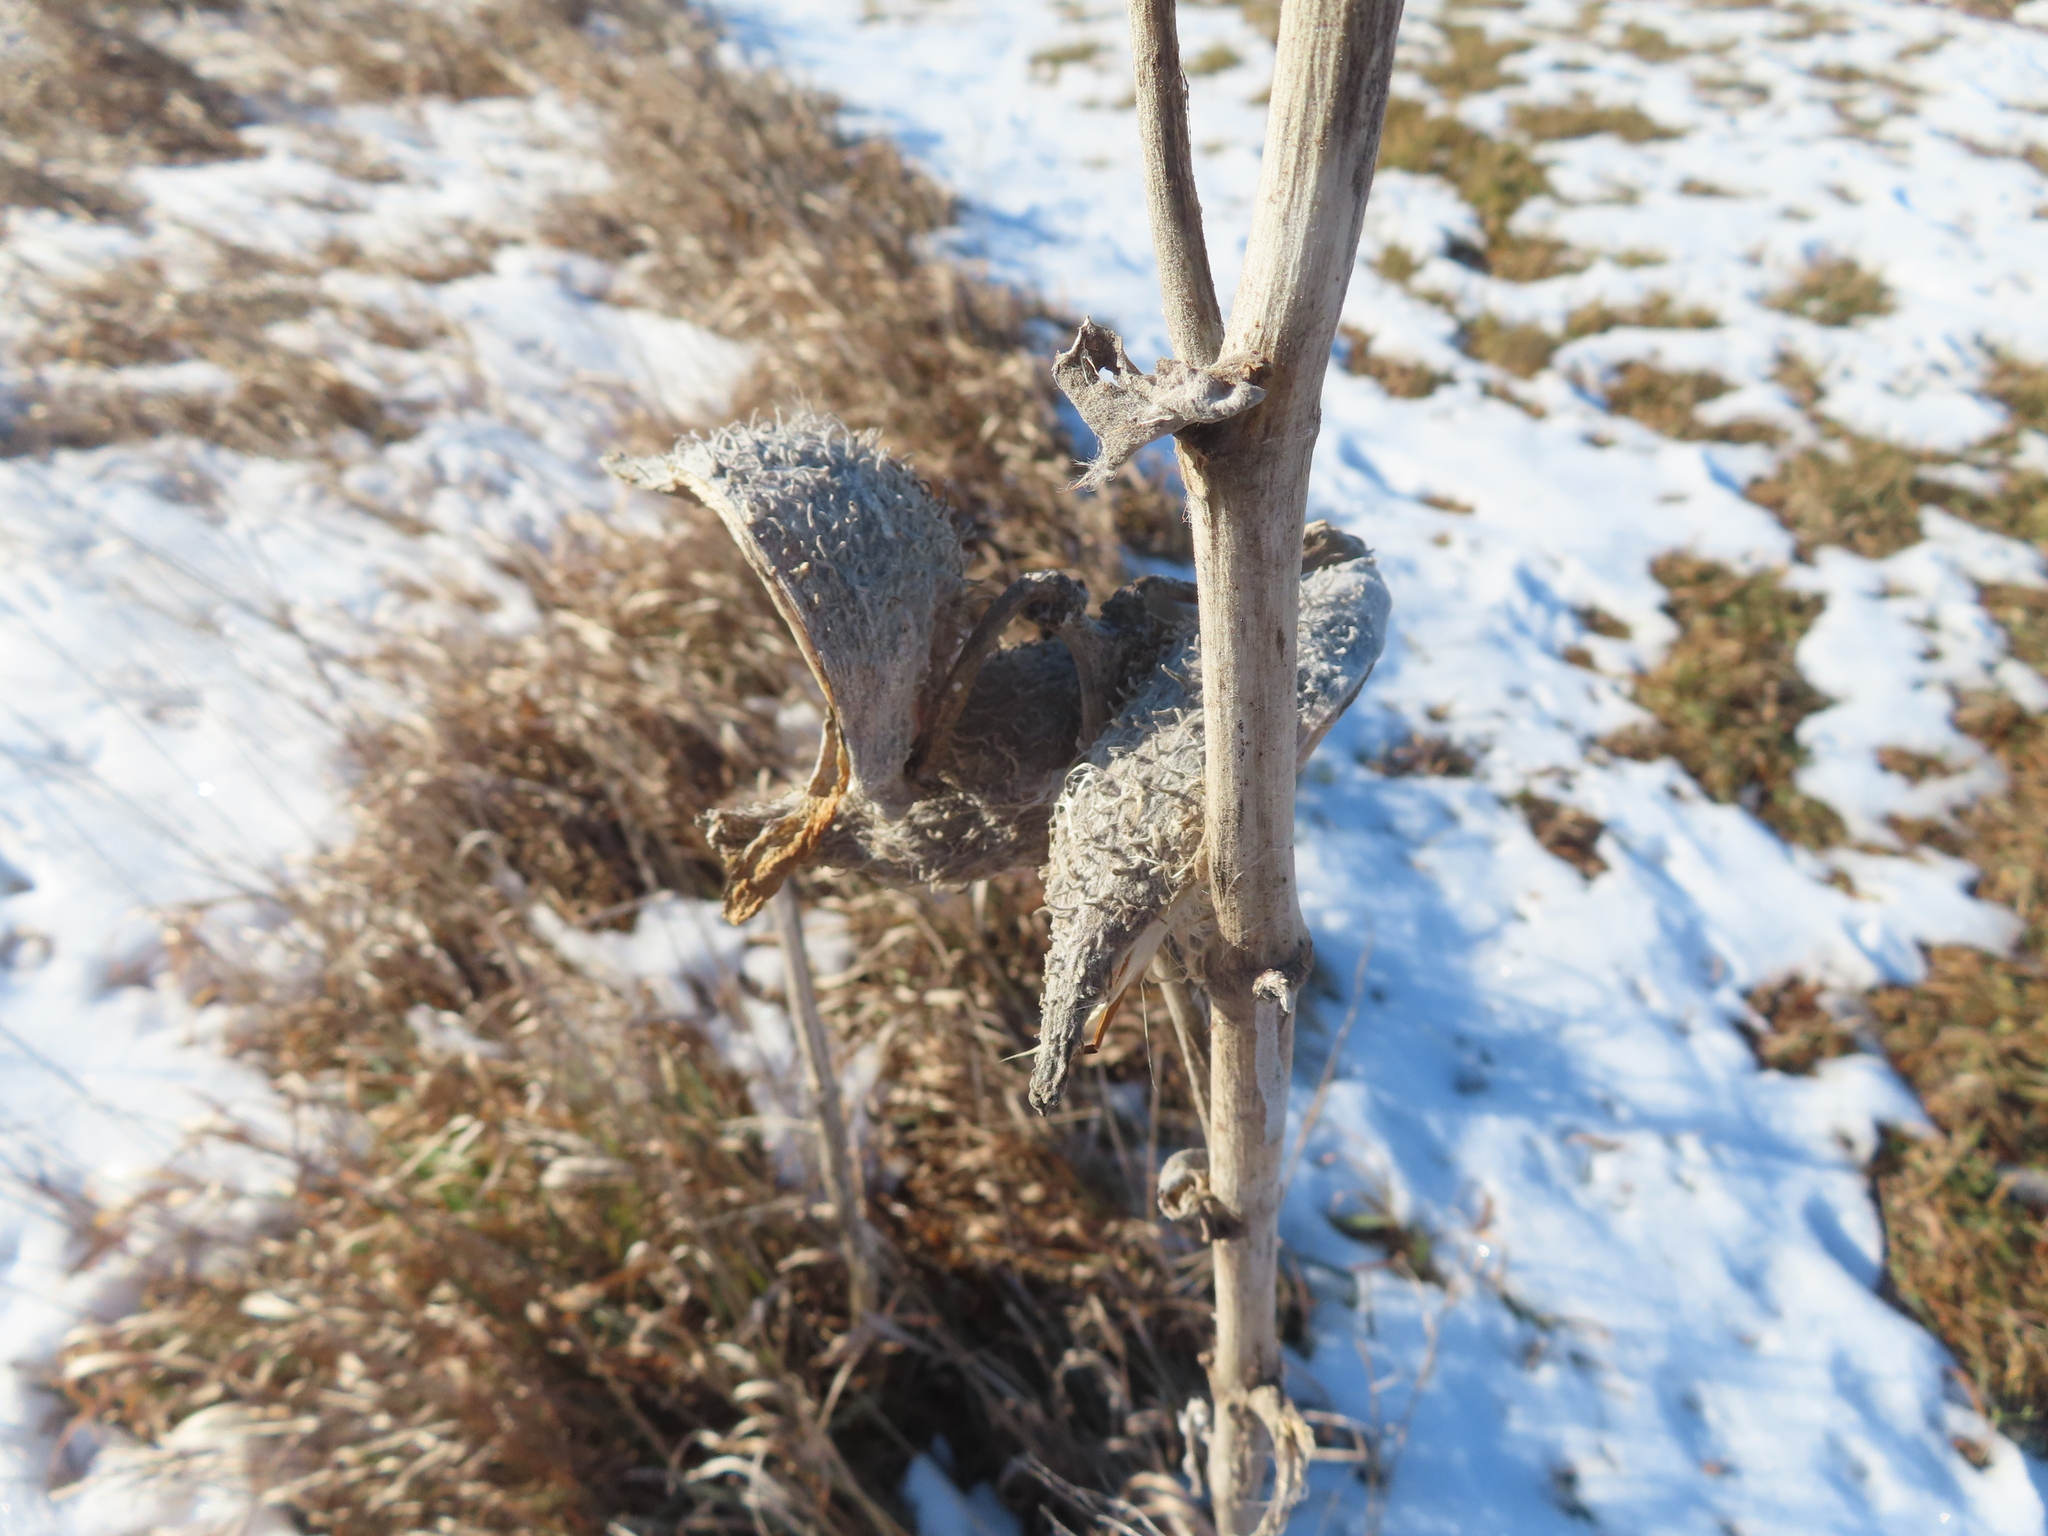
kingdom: Plantae
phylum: Tracheophyta
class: Magnoliopsida
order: Gentianales
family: Apocynaceae
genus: Asclepias
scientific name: Asclepias syriaca
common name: Common milkweed
